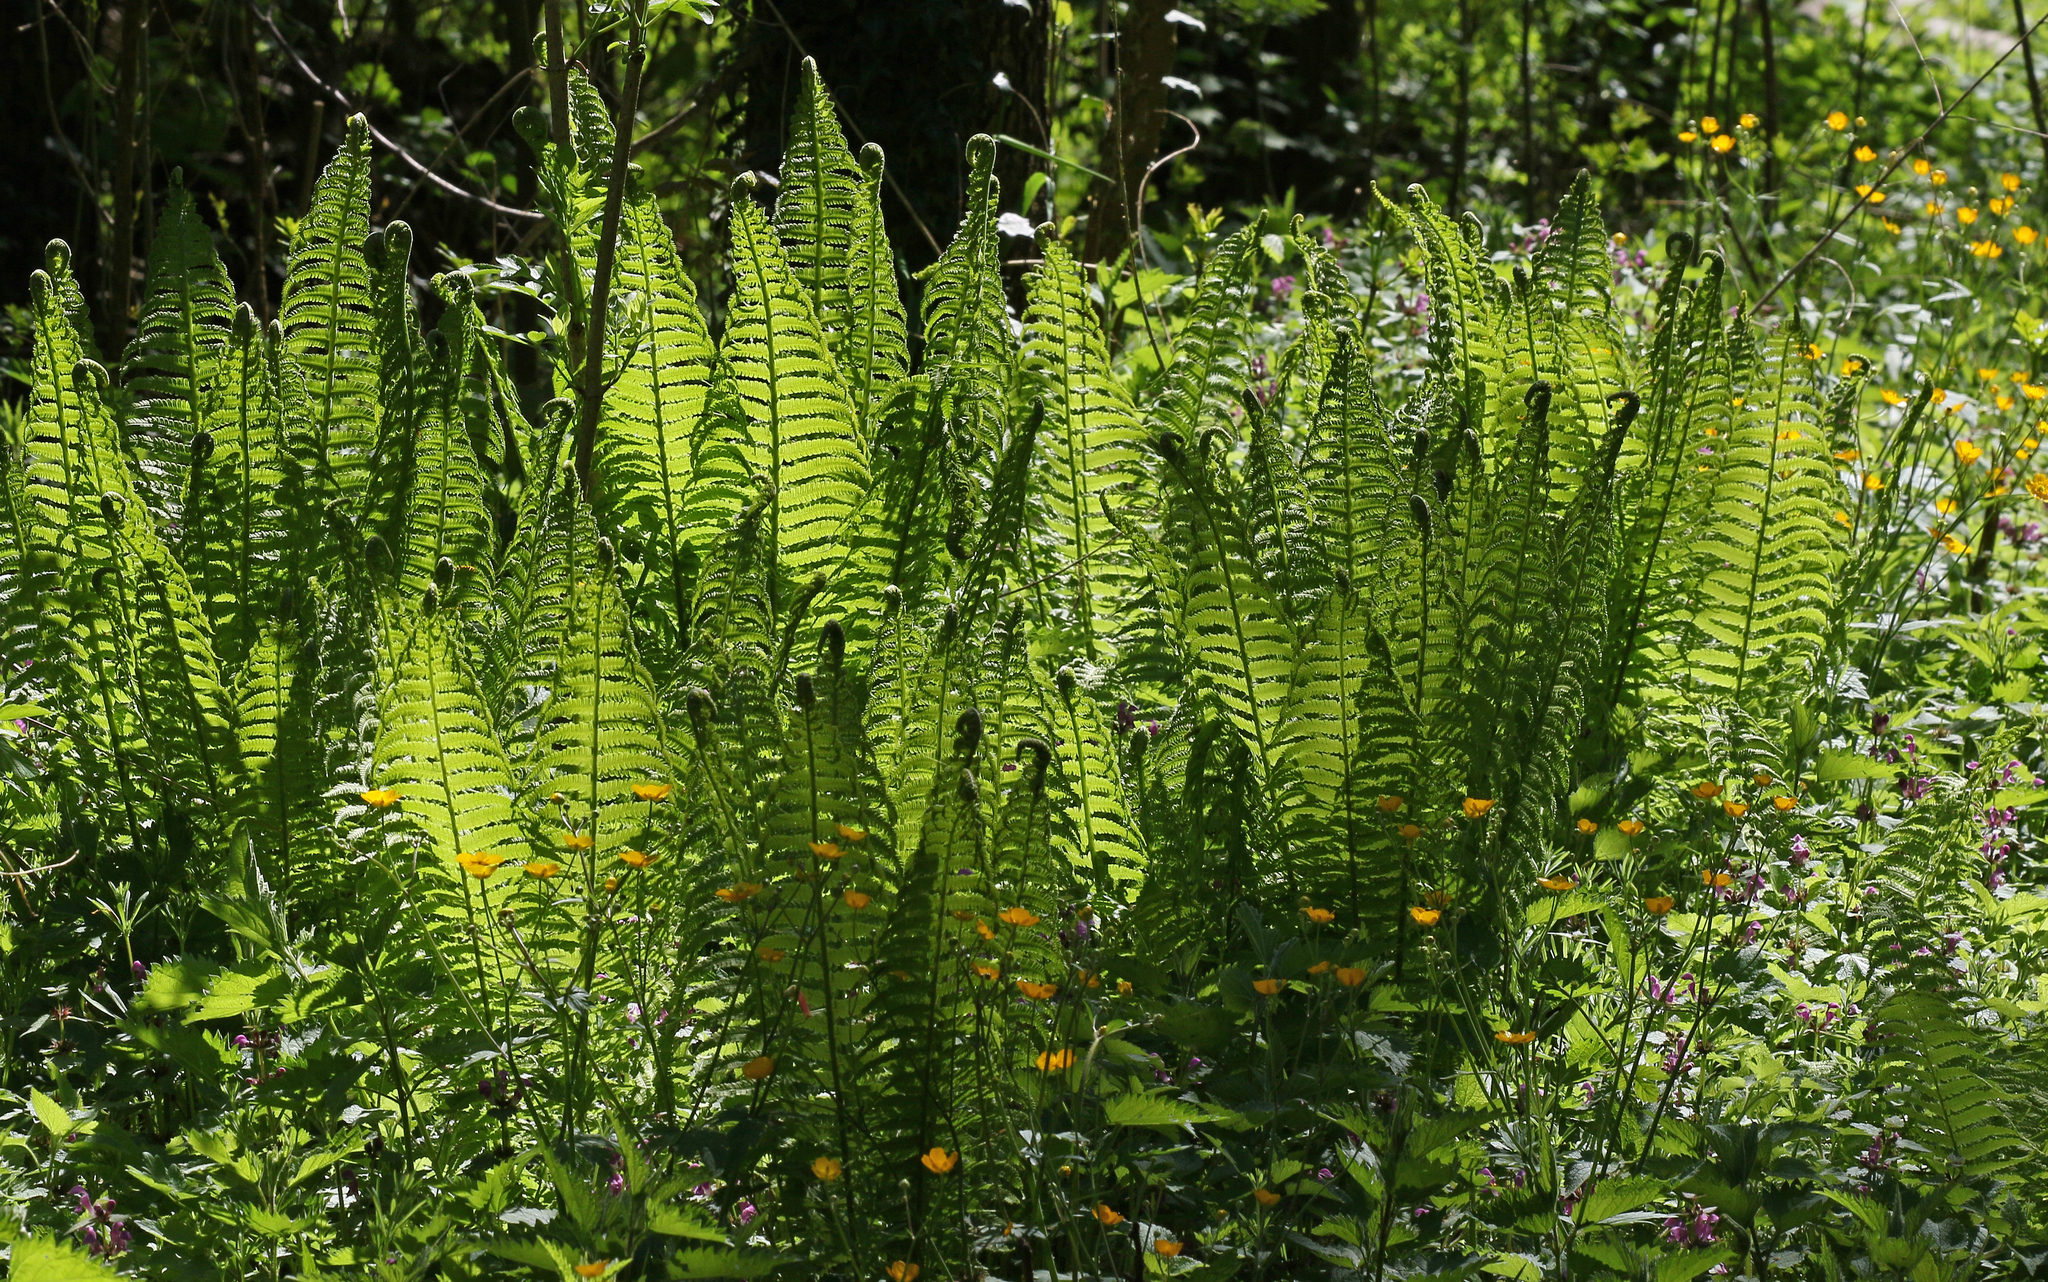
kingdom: Plantae
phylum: Tracheophyta
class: Polypodiopsida
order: Polypodiales
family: Onocleaceae
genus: Matteuccia
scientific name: Matteuccia struthiopteris
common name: Ostrich fern
